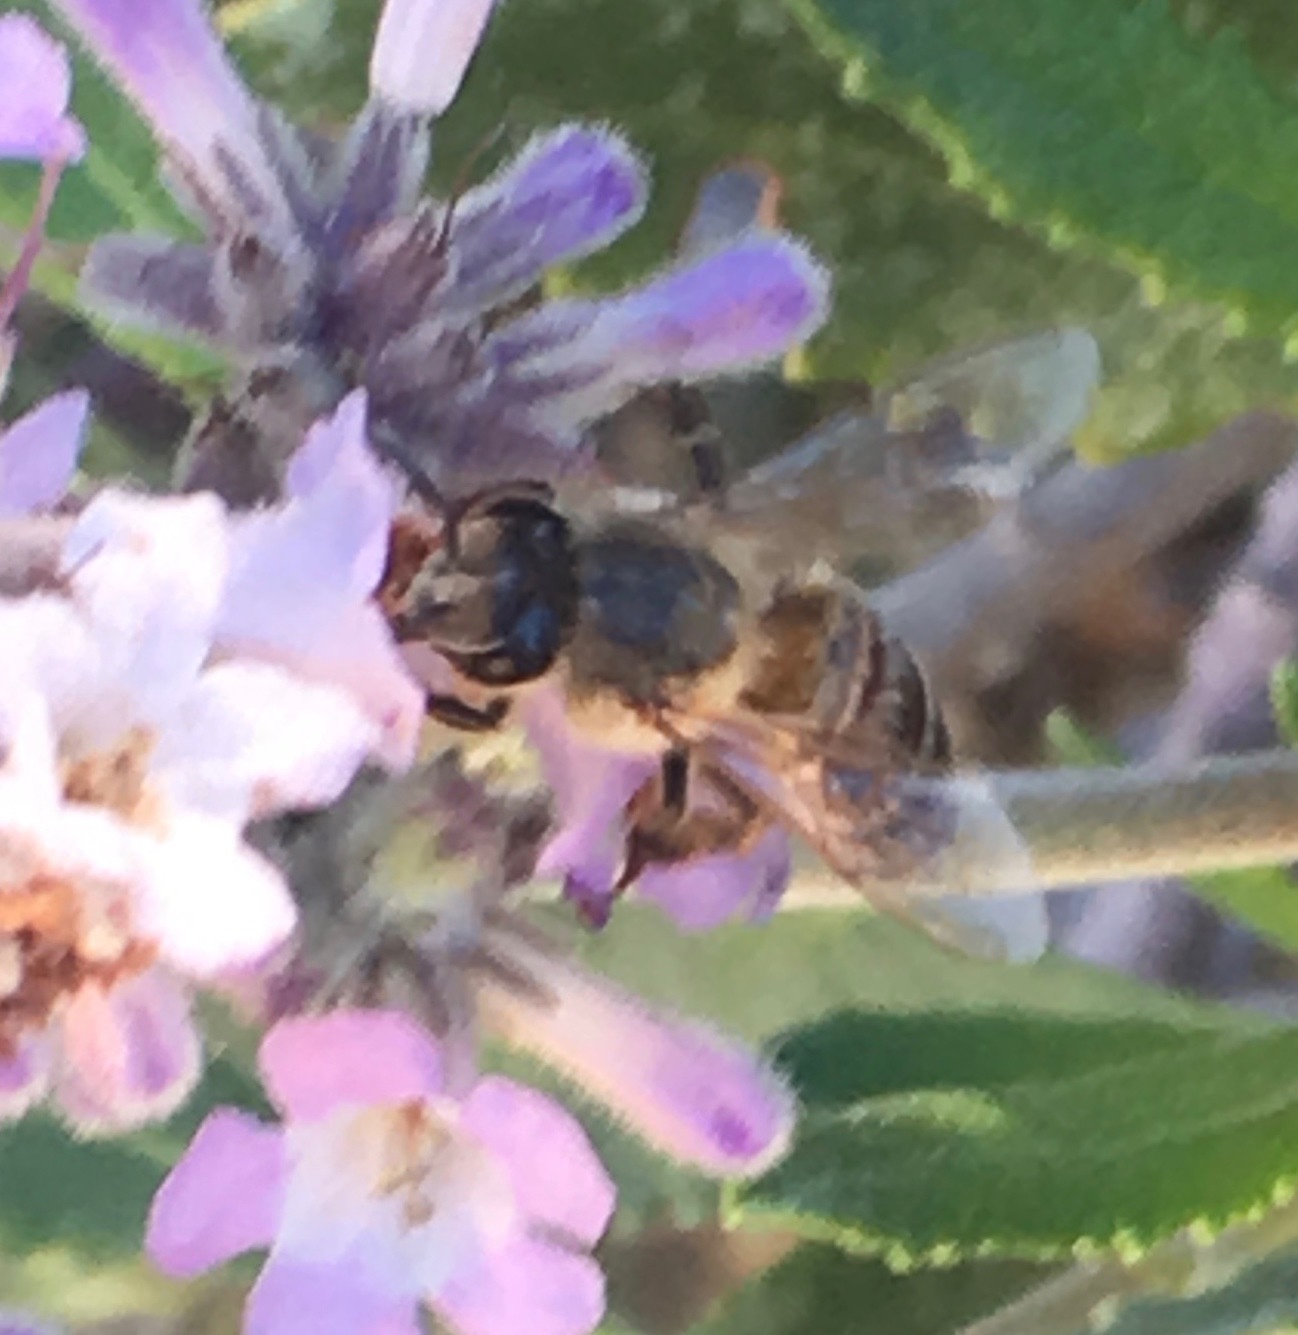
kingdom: Animalia
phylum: Arthropoda
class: Insecta
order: Hymenoptera
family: Apidae
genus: Apis
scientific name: Apis mellifera
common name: Honey bee
